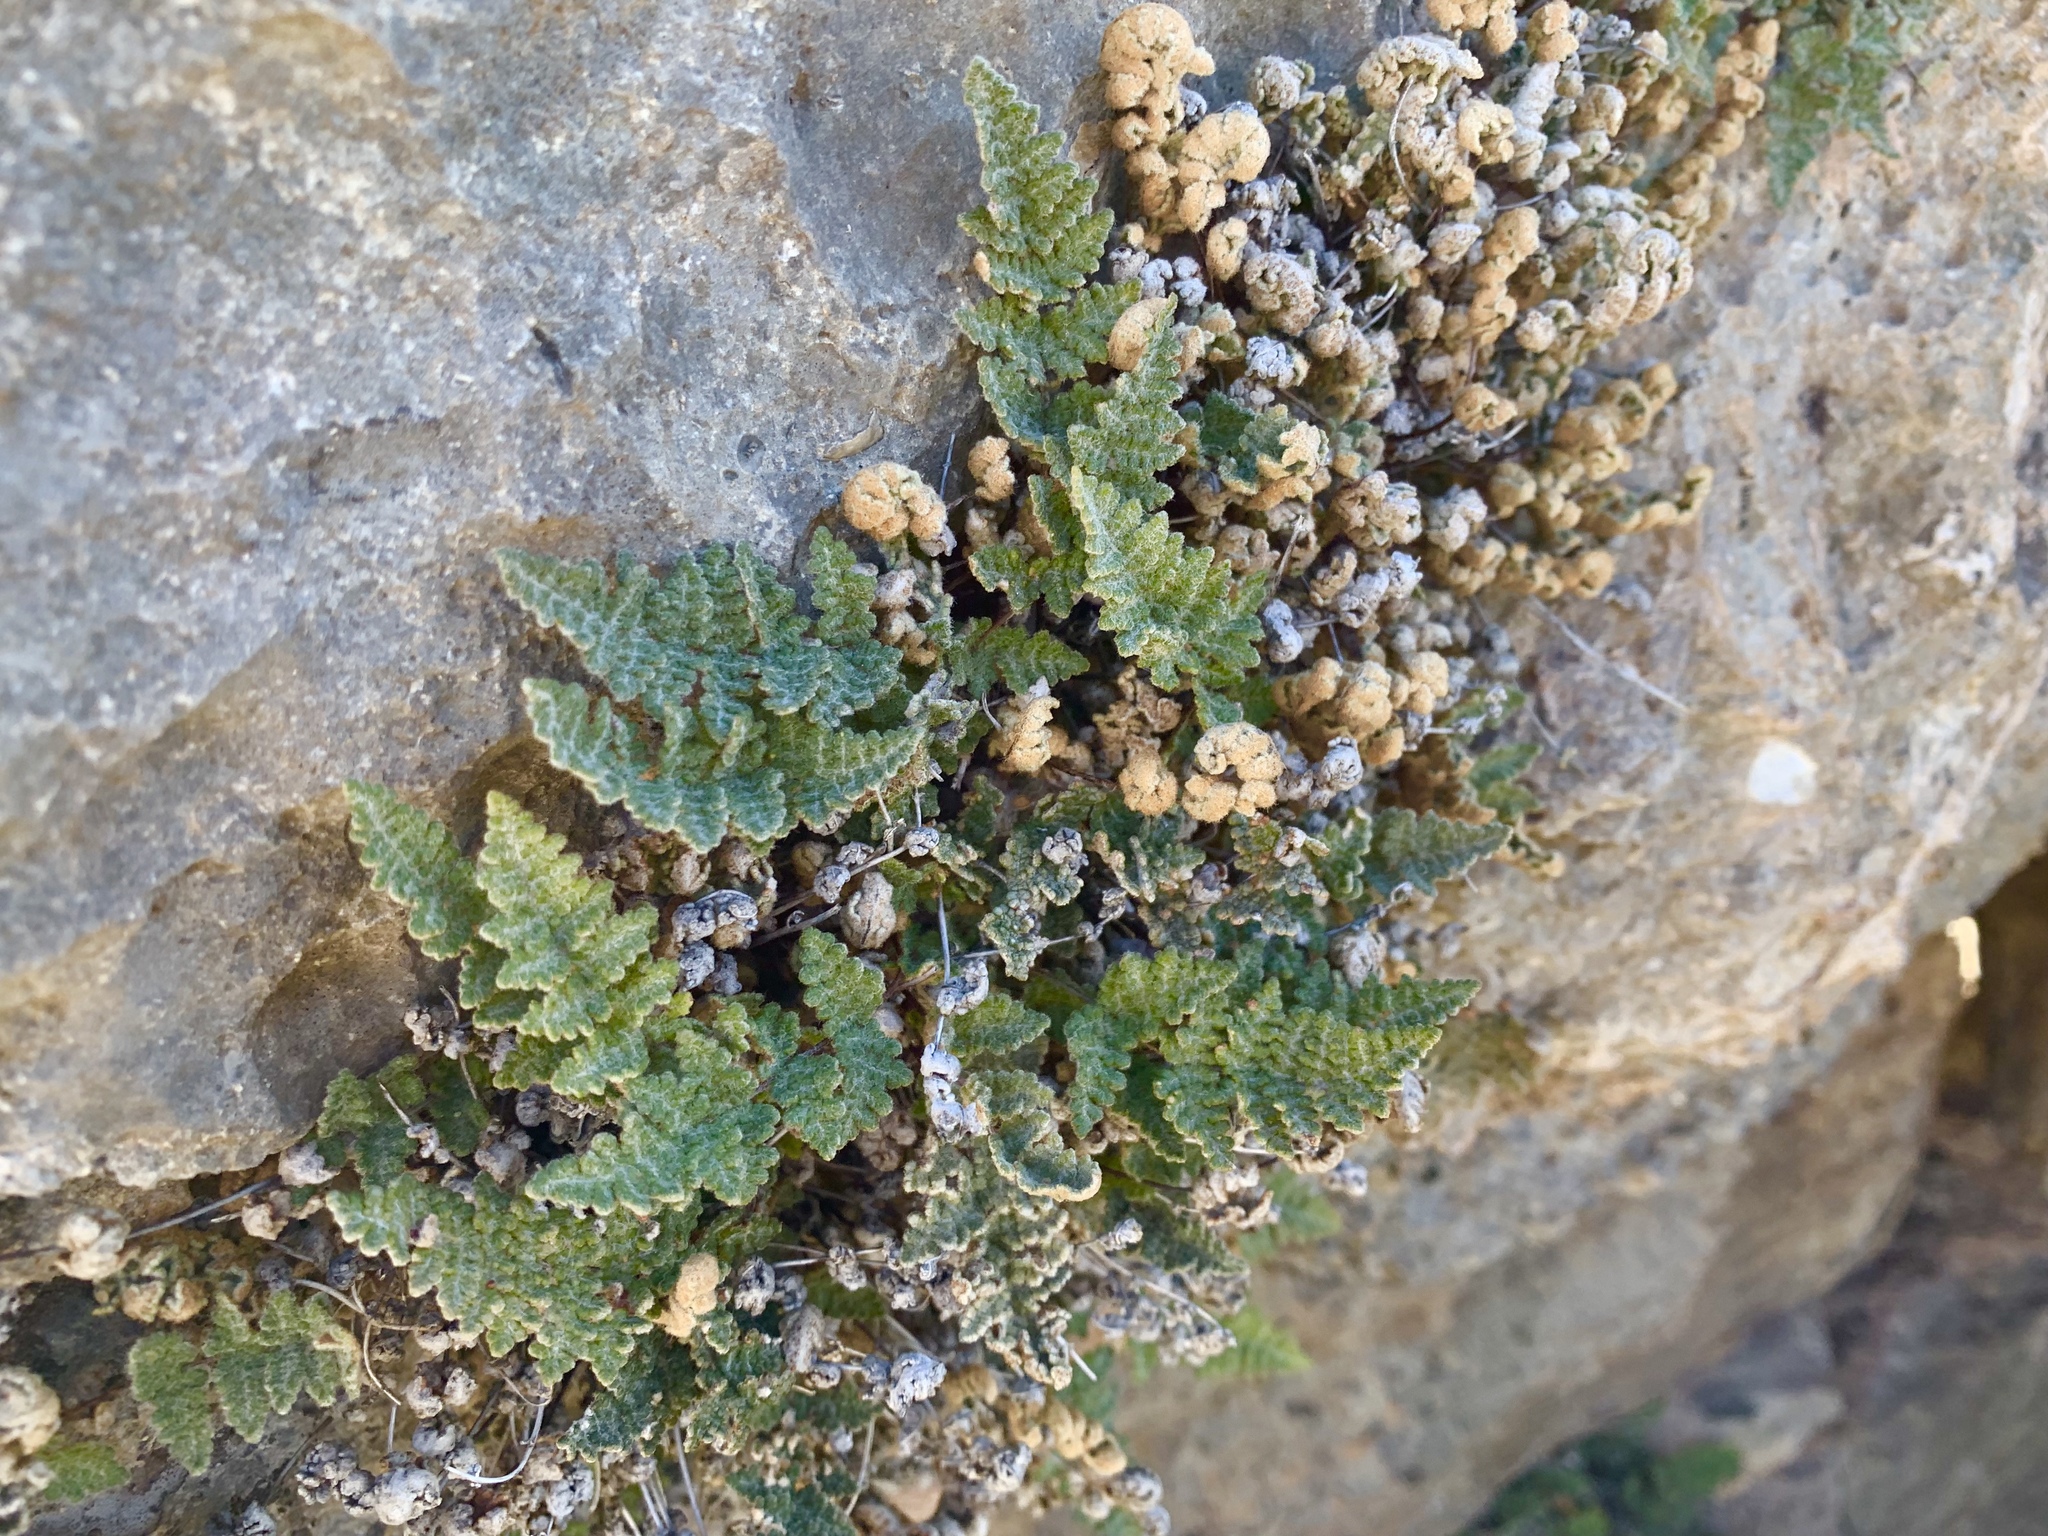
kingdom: Plantae
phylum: Tracheophyta
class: Polypodiopsida
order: Polypodiales
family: Pteridaceae
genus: Myriopteris
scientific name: Myriopteris gracilis
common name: Fee's lip fern
